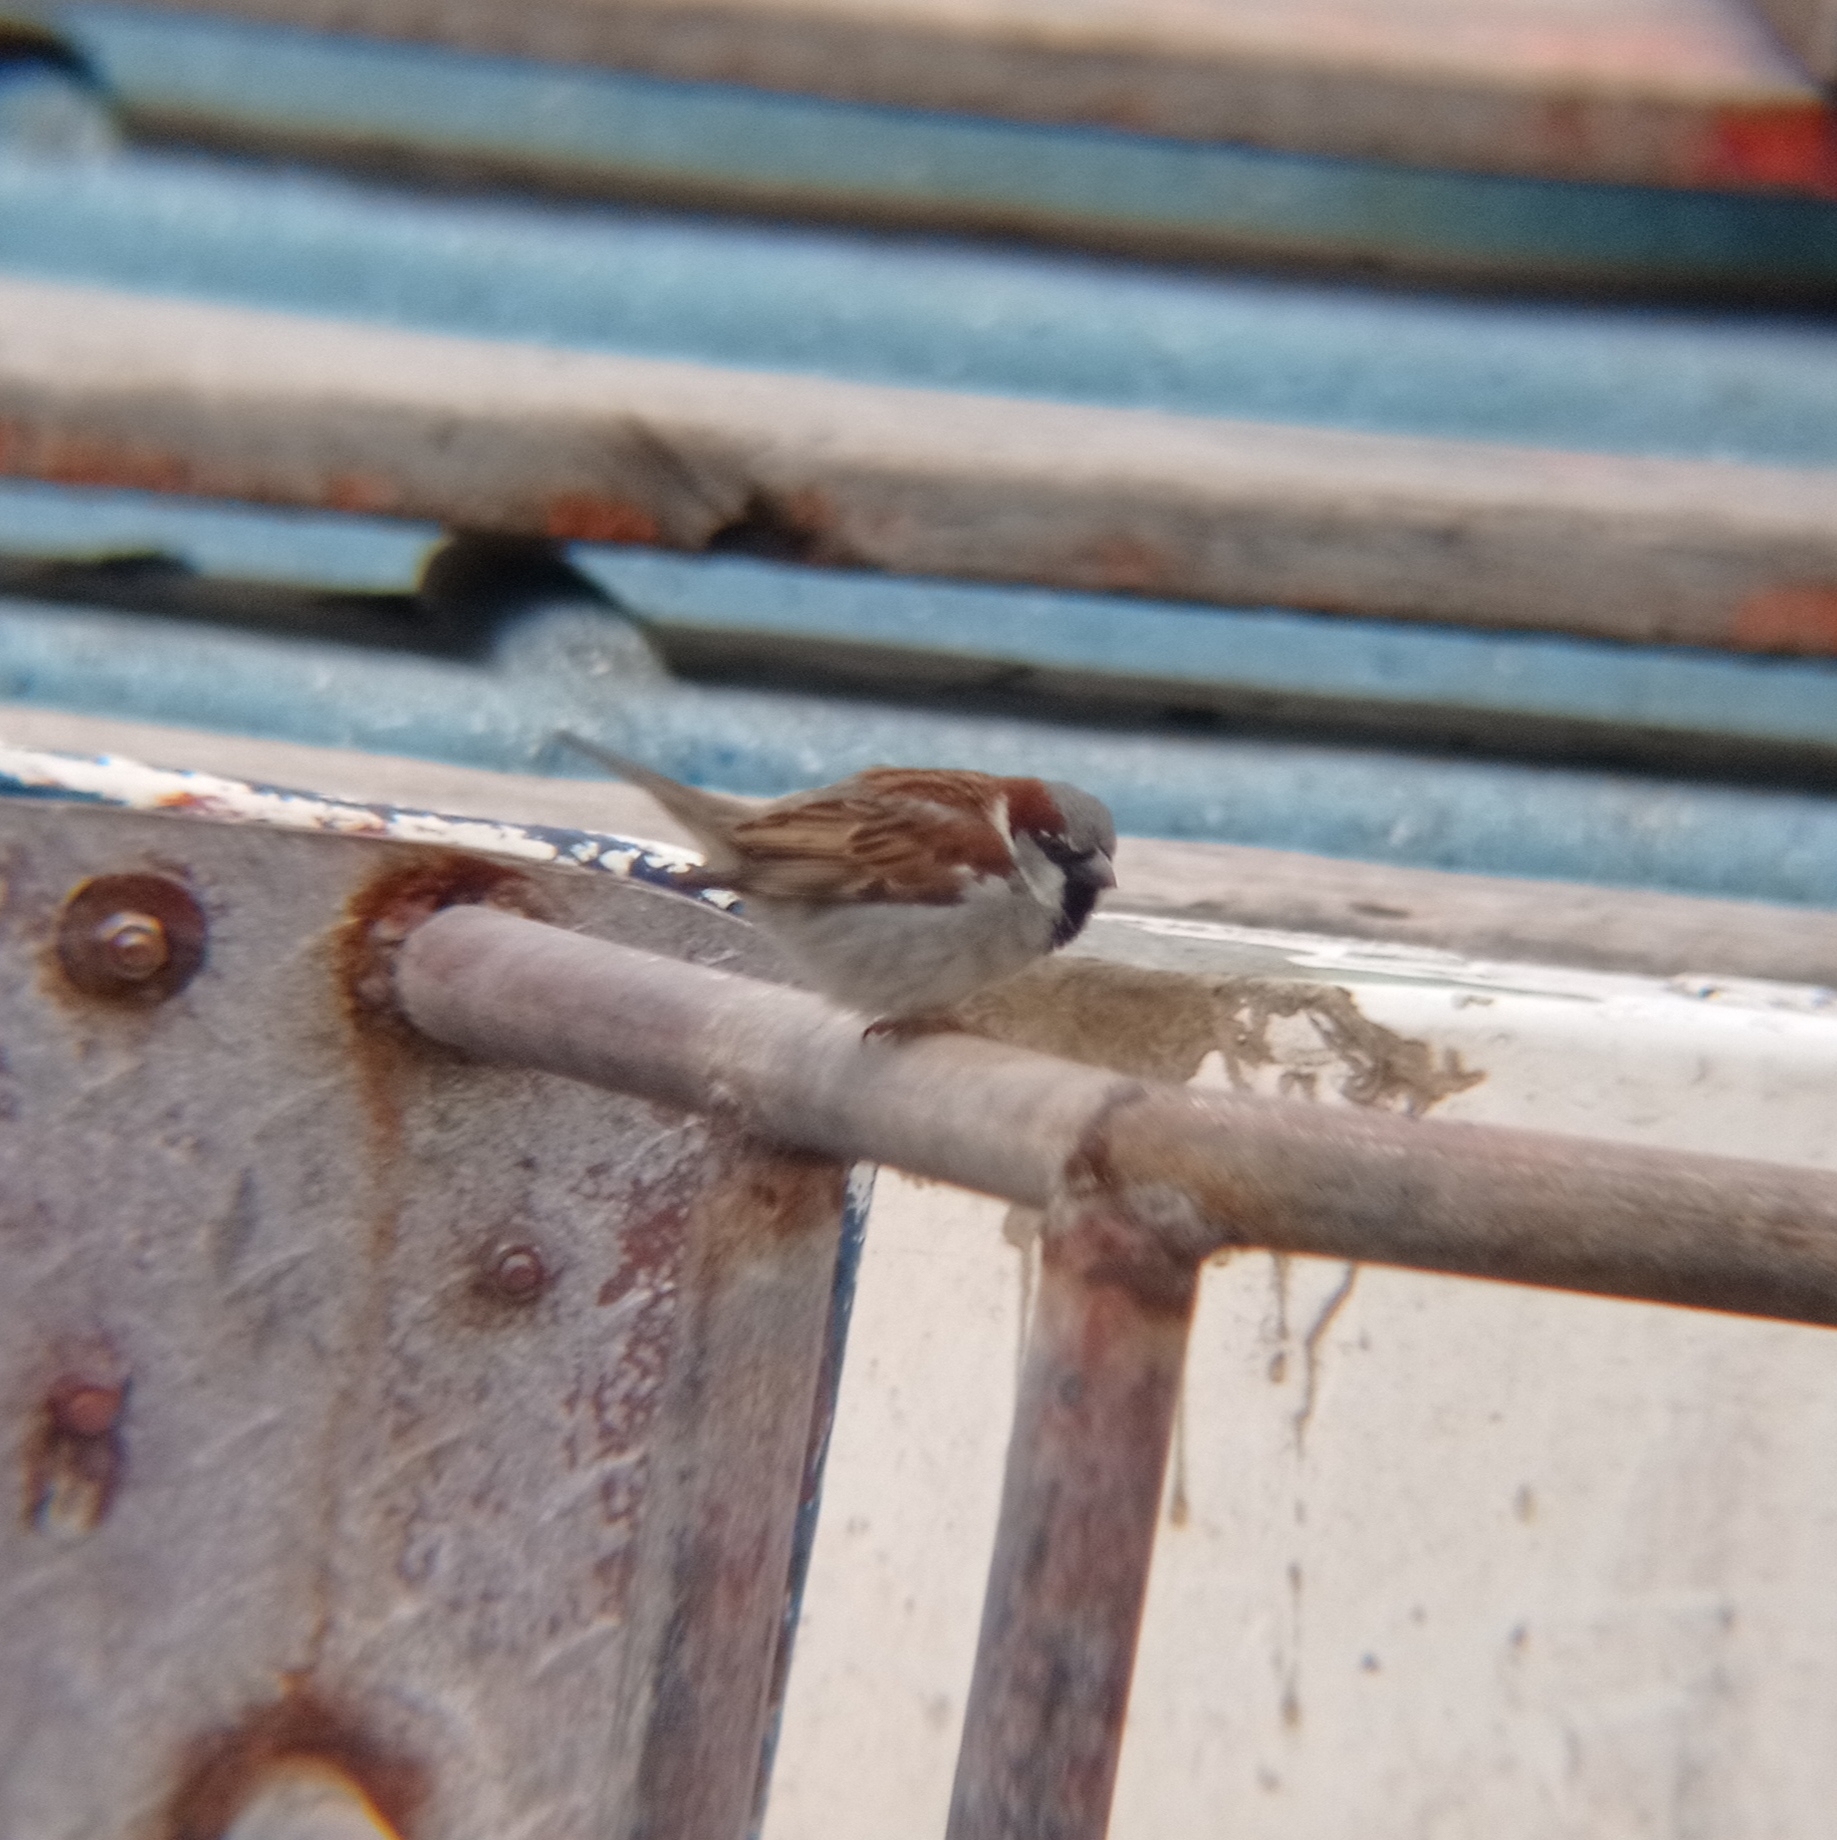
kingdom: Animalia
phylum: Chordata
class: Aves
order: Passeriformes
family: Passeridae
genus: Passer
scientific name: Passer domesticus
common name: House sparrow
